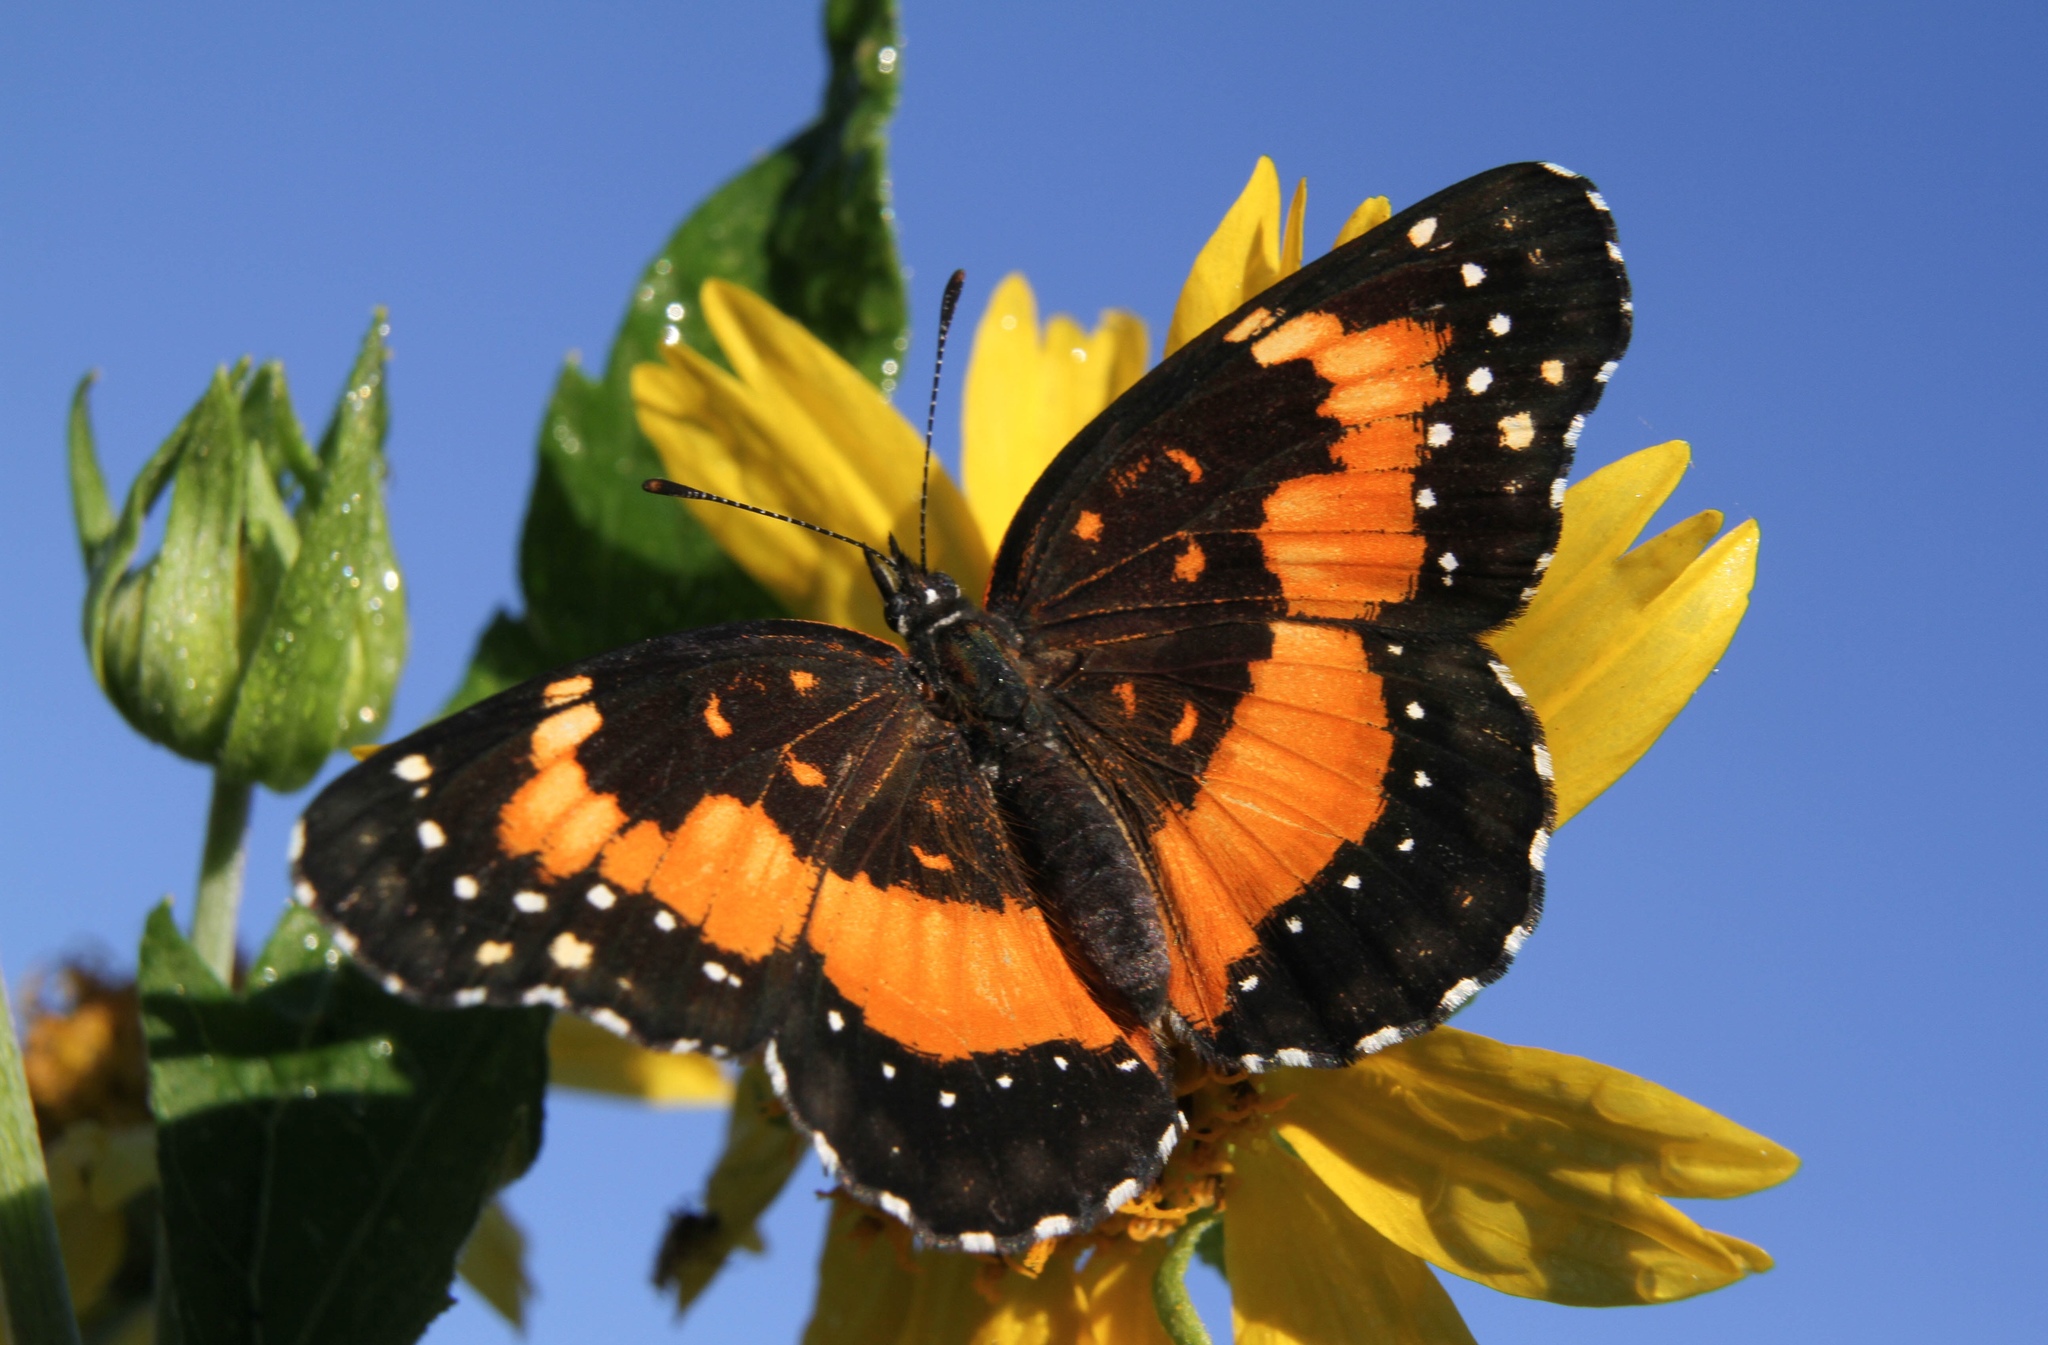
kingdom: Animalia
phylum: Arthropoda
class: Insecta
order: Lepidoptera
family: Nymphalidae
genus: Chlosyne
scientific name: Chlosyne lacinia
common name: Bordered patch
